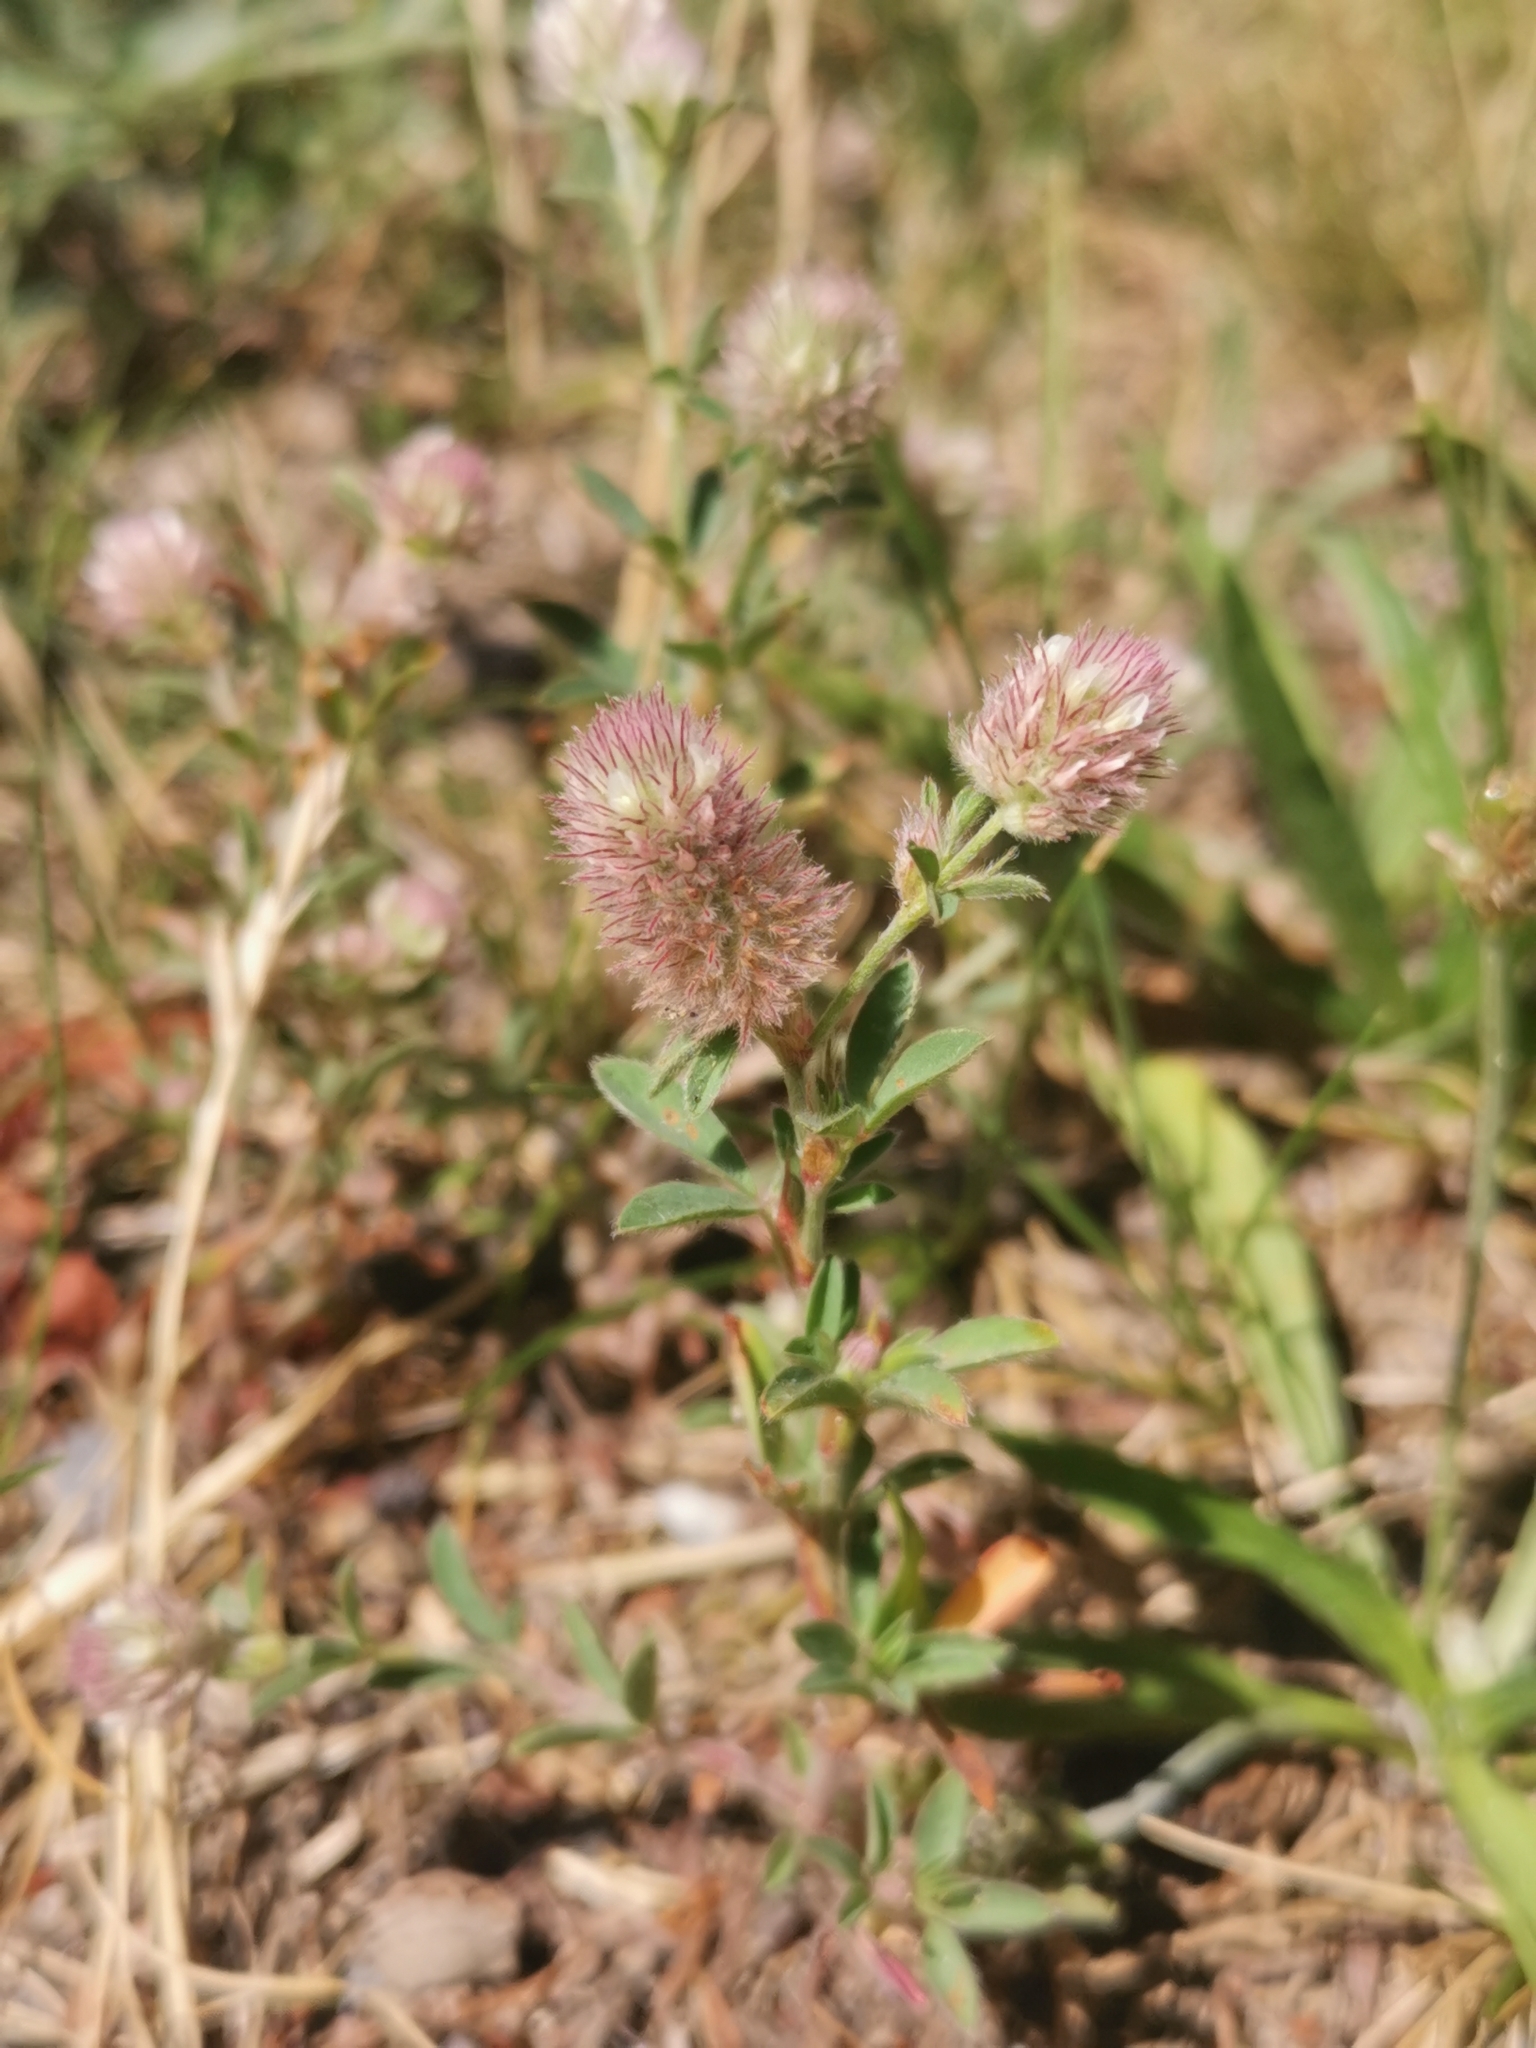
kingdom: Plantae
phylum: Tracheophyta
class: Magnoliopsida
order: Fabales
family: Fabaceae
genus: Trifolium
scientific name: Trifolium arvense
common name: Hare's-foot clover
